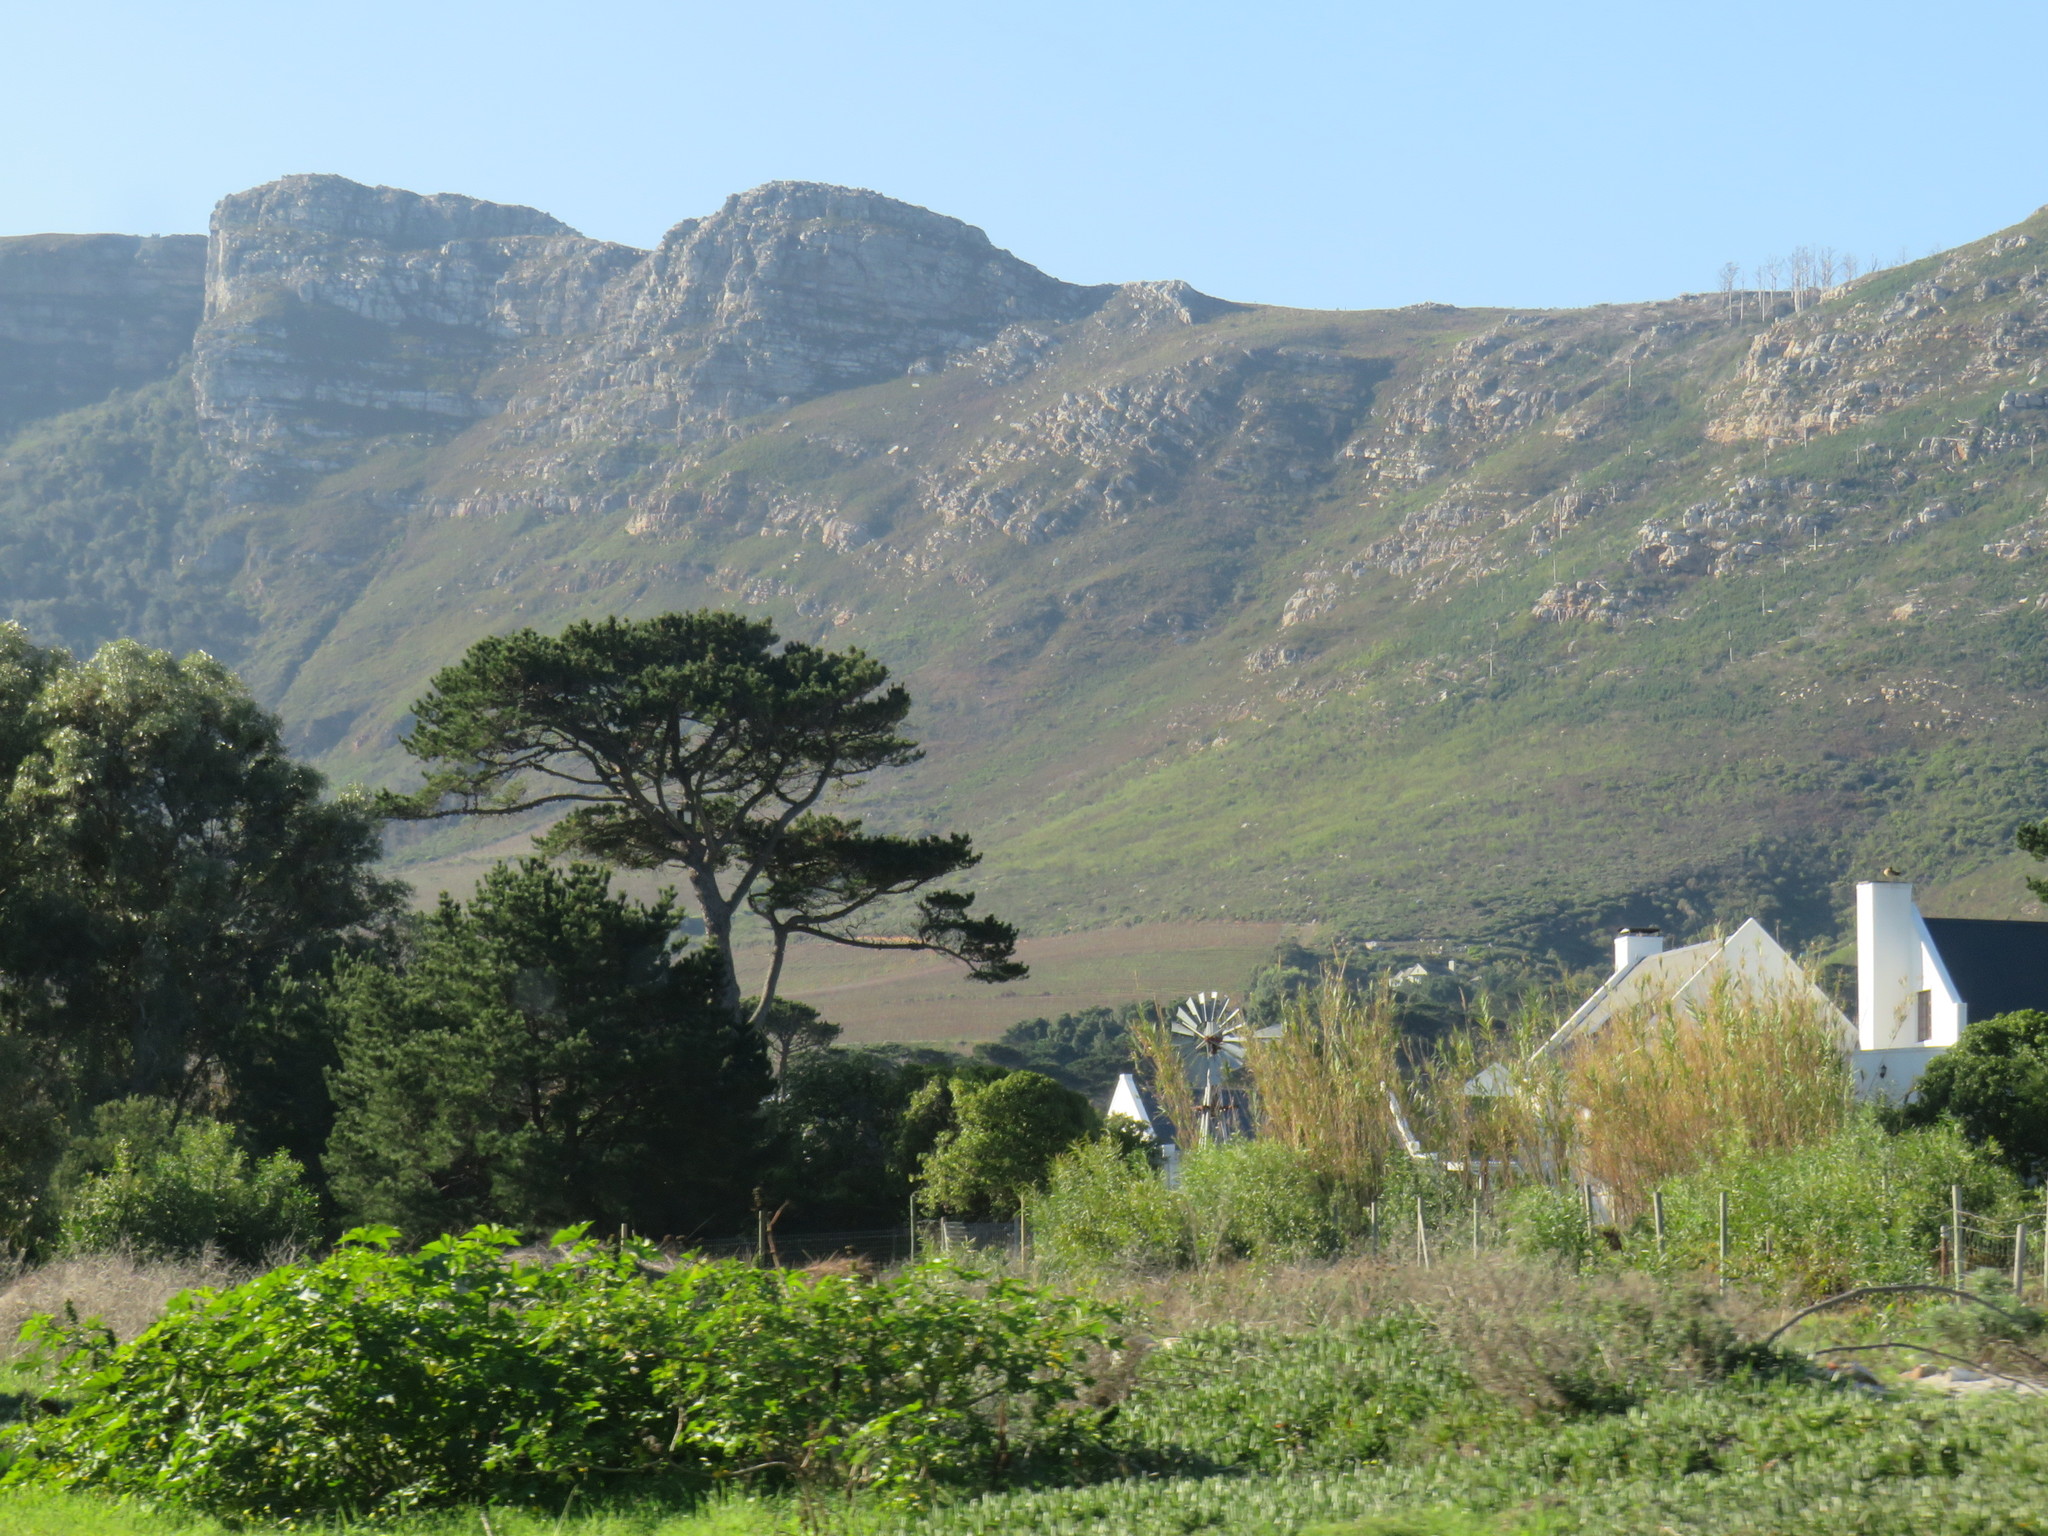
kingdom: Plantae
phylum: Tracheophyta
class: Pinopsida
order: Pinales
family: Pinaceae
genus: Pinus
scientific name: Pinus radiata
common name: Monterey pine
